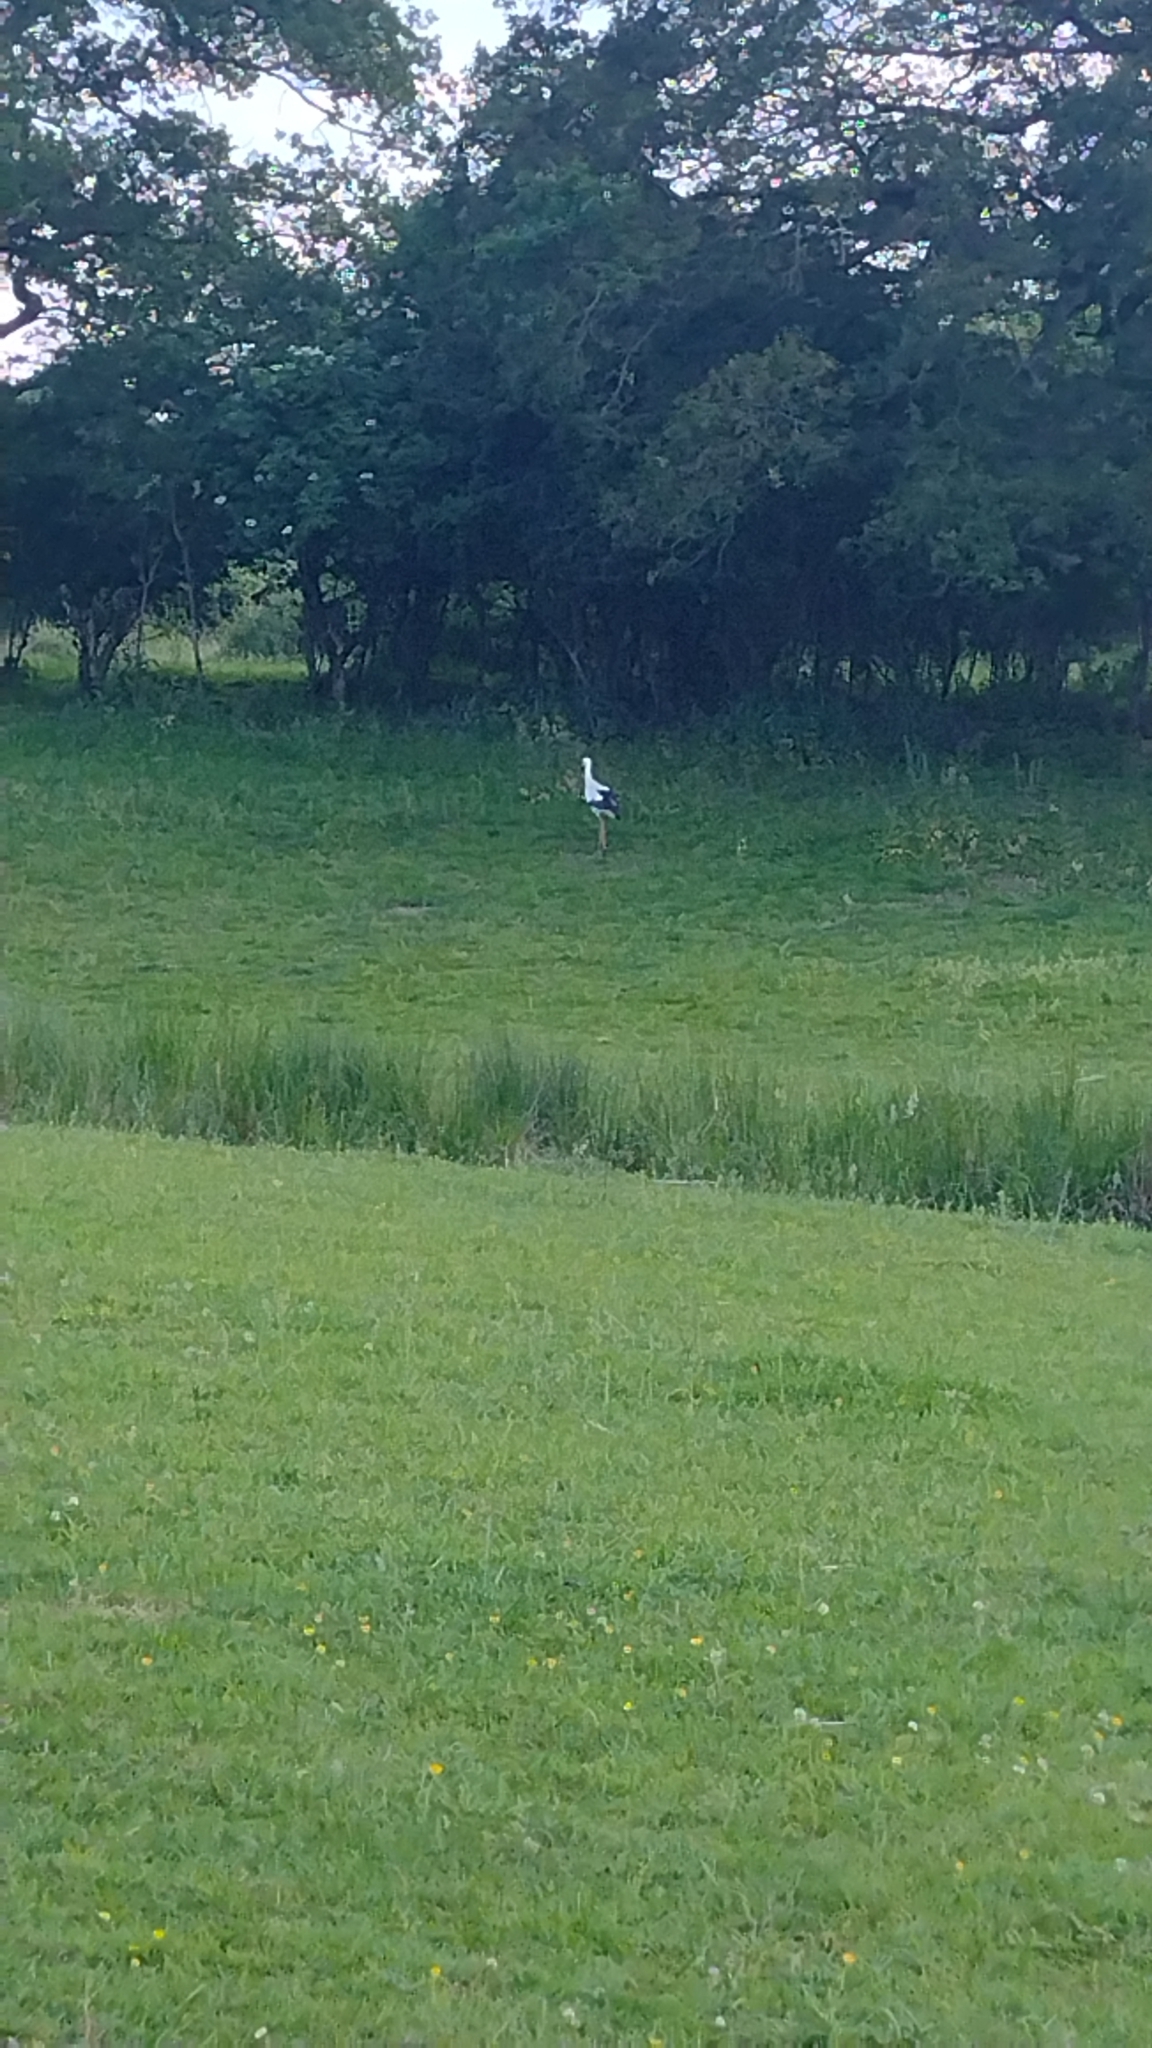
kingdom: Animalia
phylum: Chordata
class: Aves
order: Ciconiiformes
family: Ciconiidae
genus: Ciconia
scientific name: Ciconia ciconia
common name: White stork
